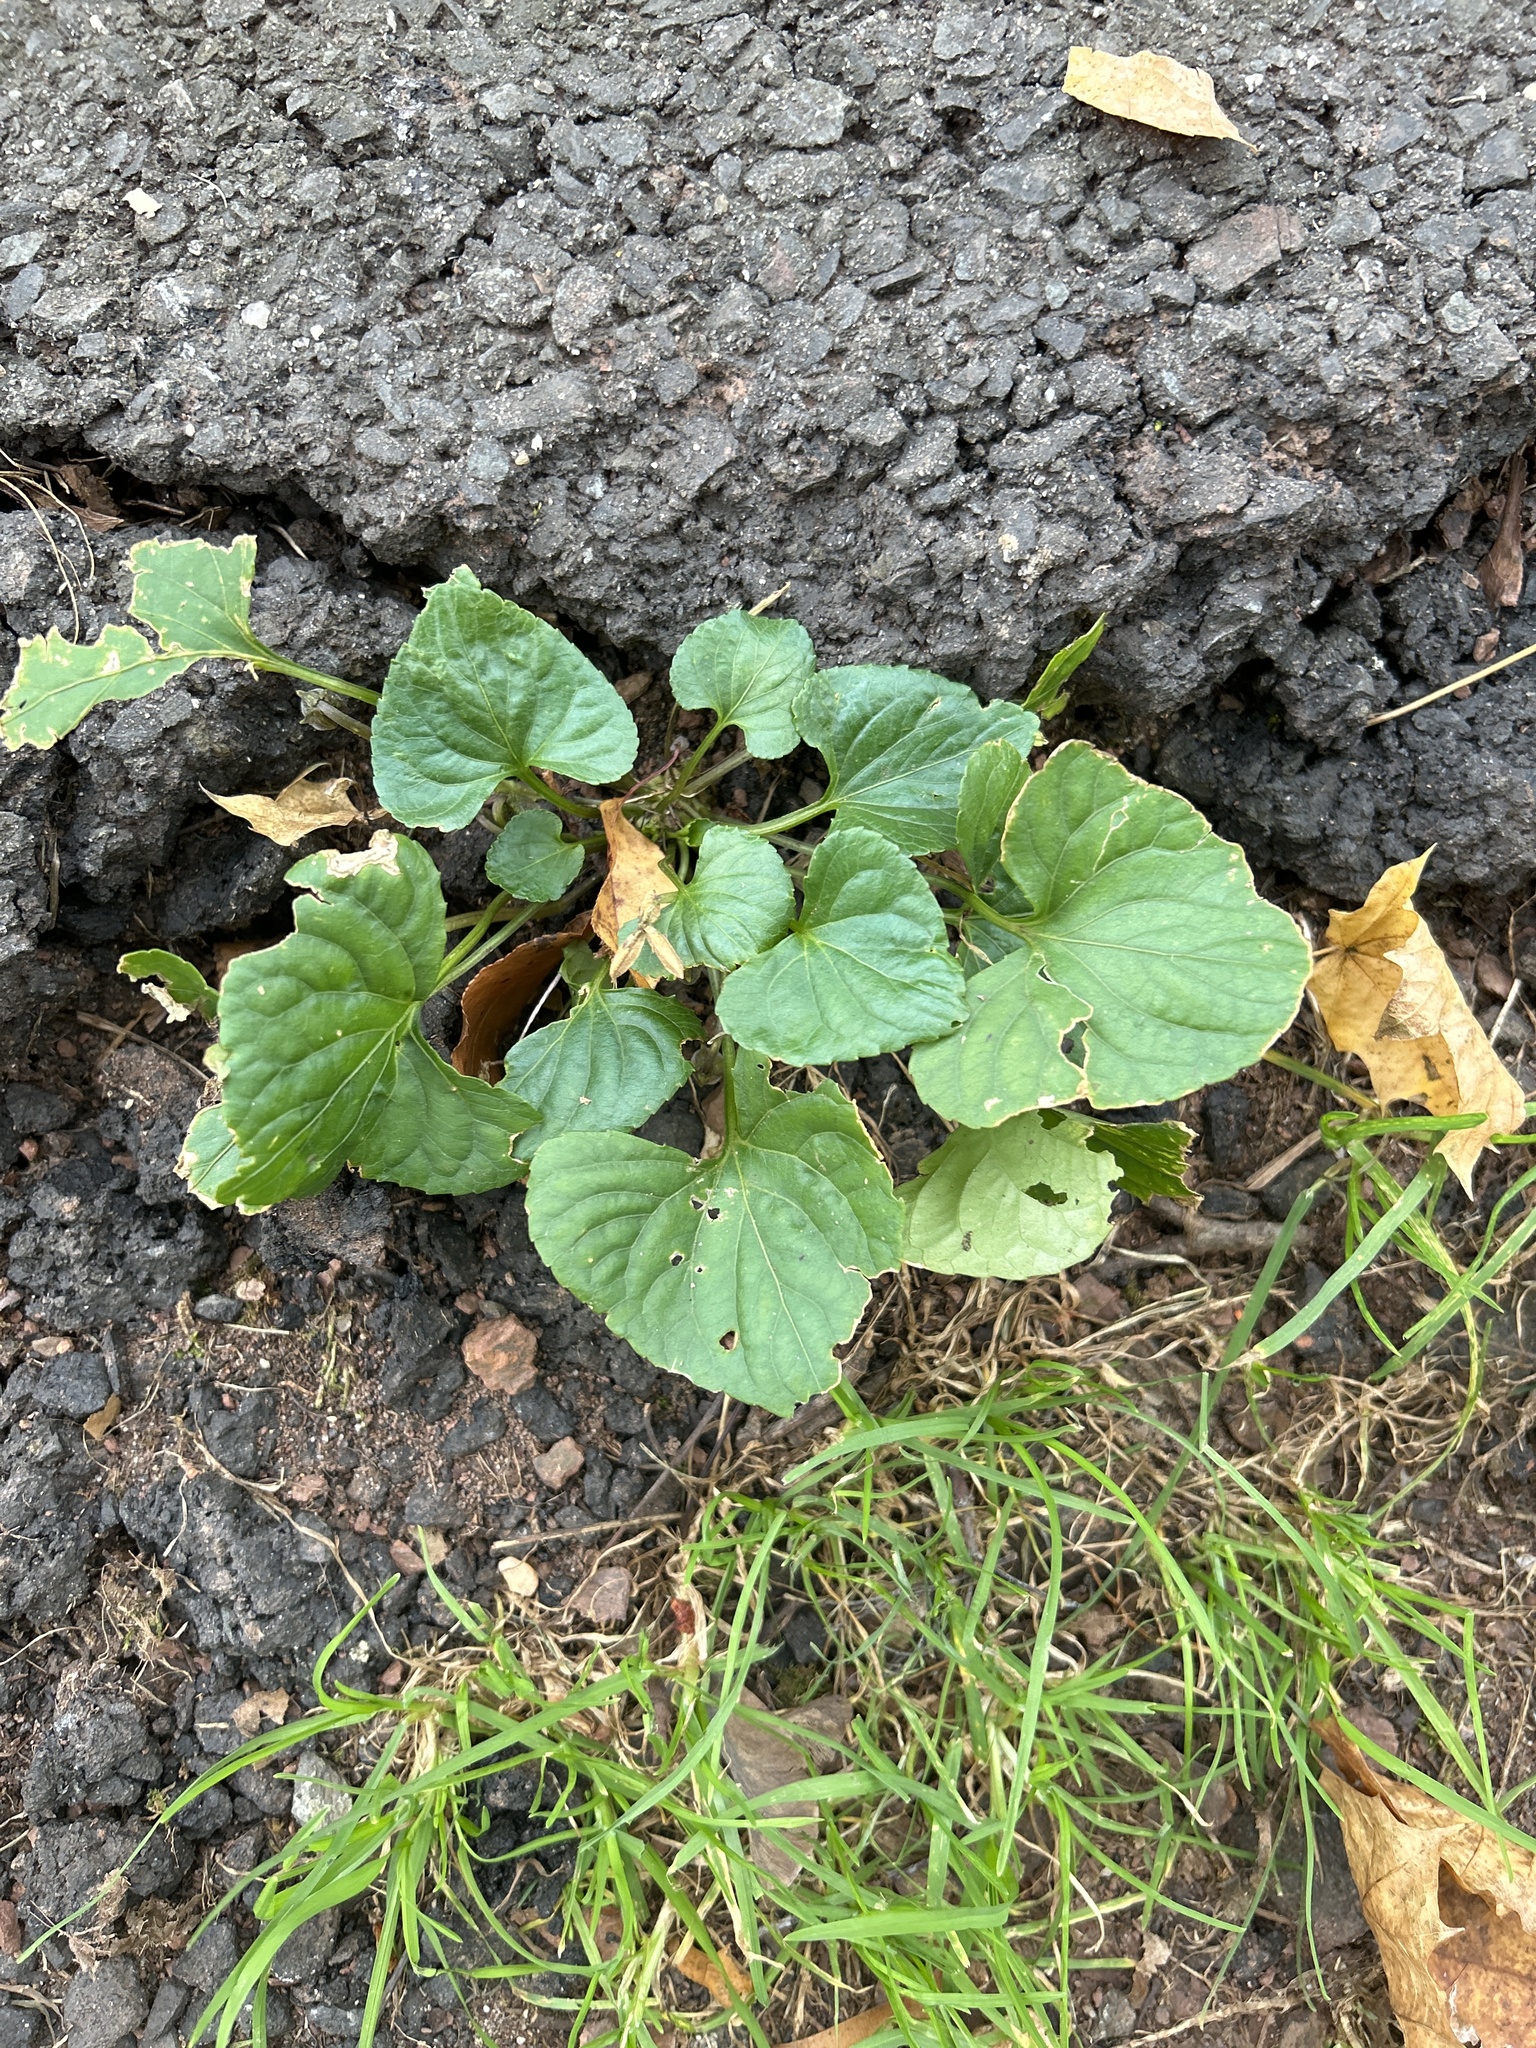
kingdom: Plantae
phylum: Tracheophyta
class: Magnoliopsida
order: Malpighiales
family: Violaceae
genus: Viola
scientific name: Viola sororia
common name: Dooryard violet
